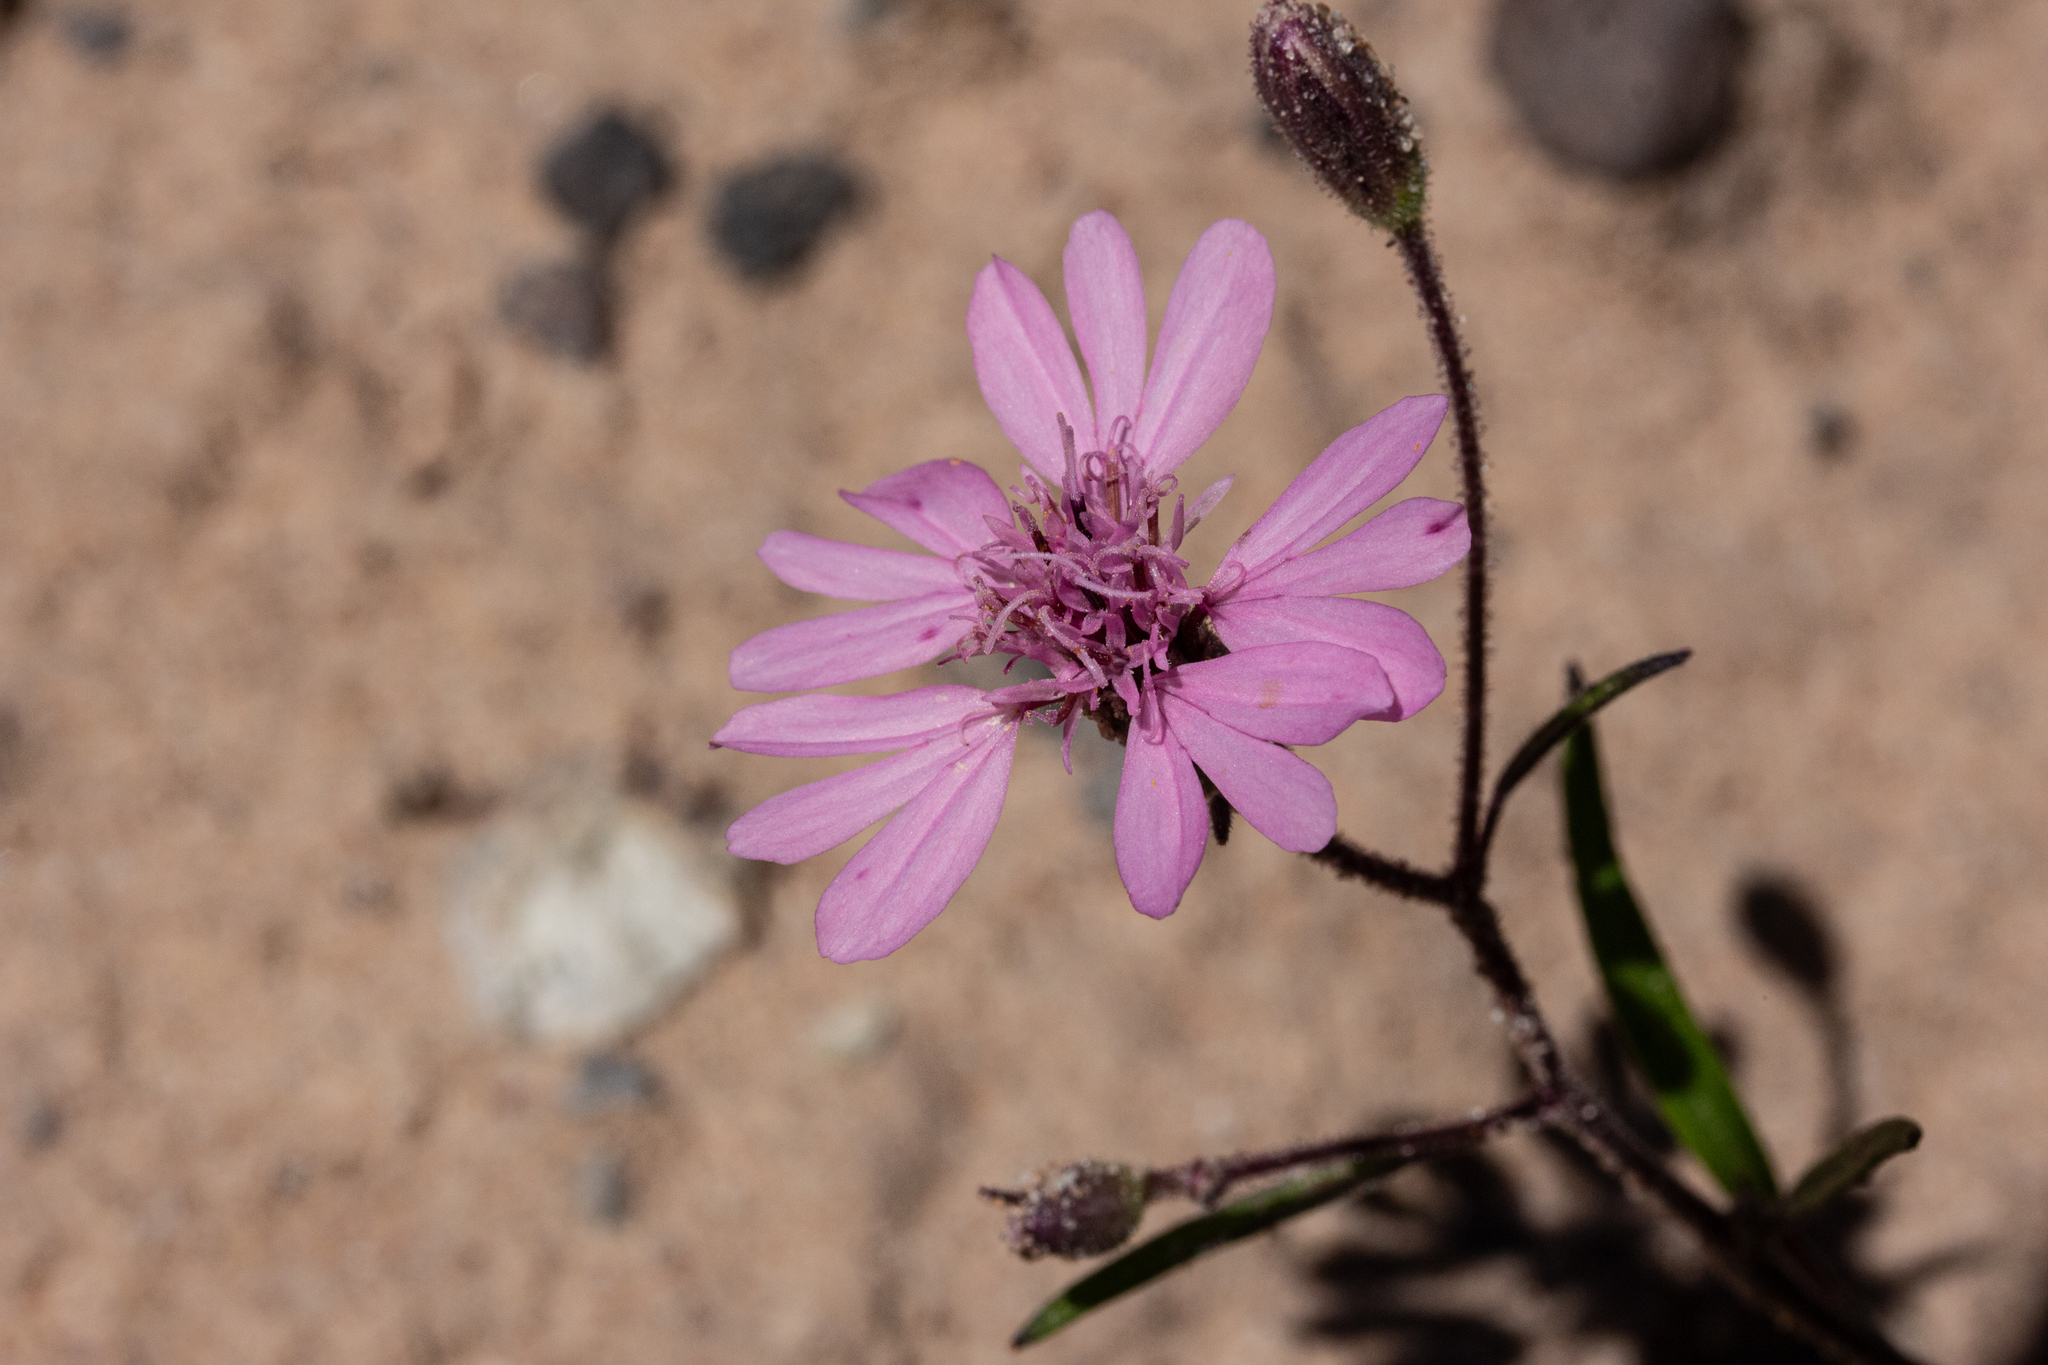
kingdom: Plantae
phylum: Tracheophyta
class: Magnoliopsida
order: Asterales
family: Asteraceae
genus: Palafoxia
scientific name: Palafoxia sphacelata
